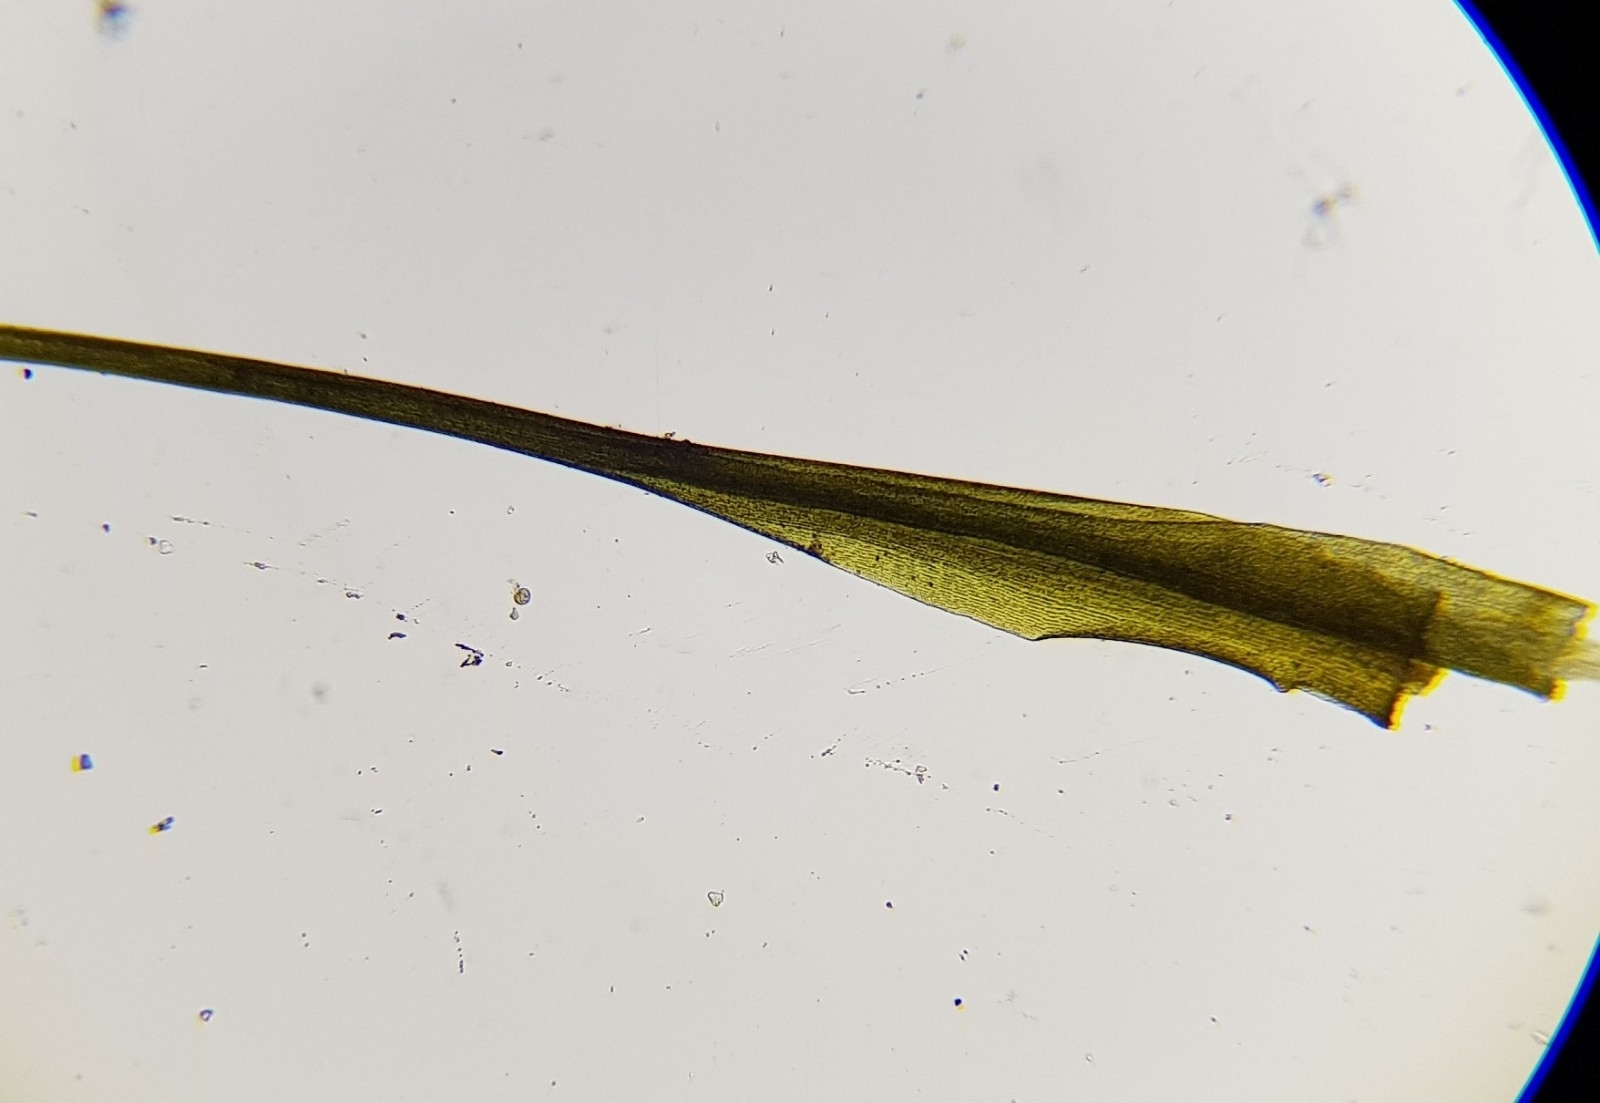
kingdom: Plantae
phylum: Bryophyta
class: Bryopsida
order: Scouleriales
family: Flexitrichaceae
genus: Flexitrichum
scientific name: Flexitrichum gracile
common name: Slender ditrichum
